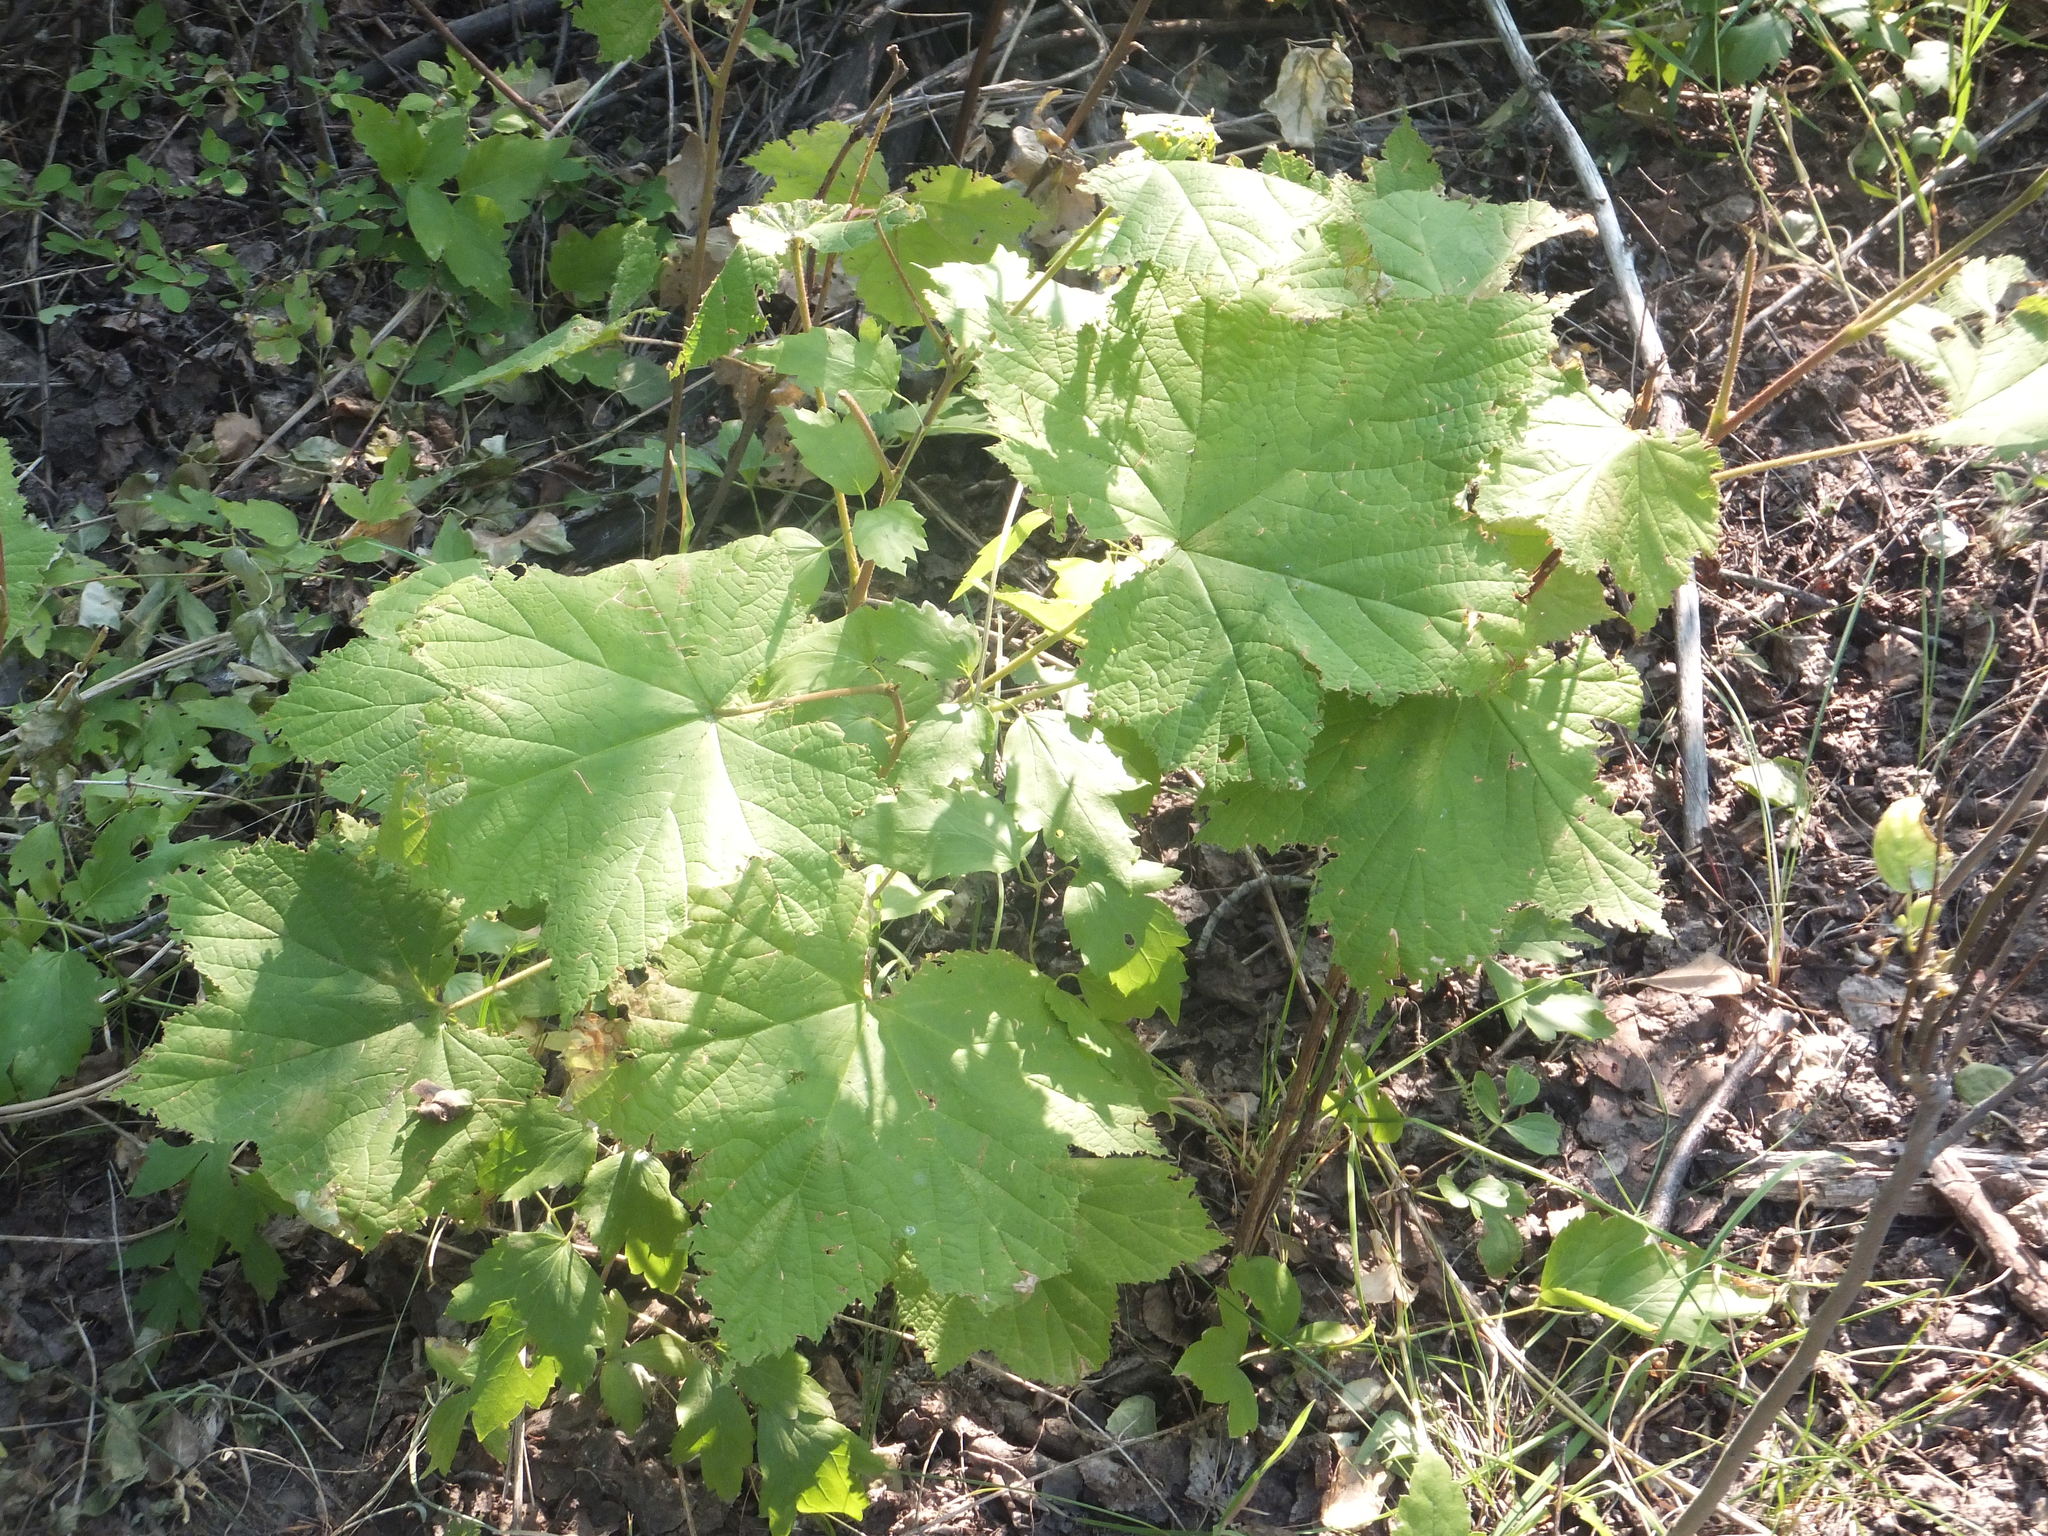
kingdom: Plantae
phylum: Tracheophyta
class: Magnoliopsida
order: Rosales
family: Rosaceae
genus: Rubus
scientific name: Rubus parviflorus
